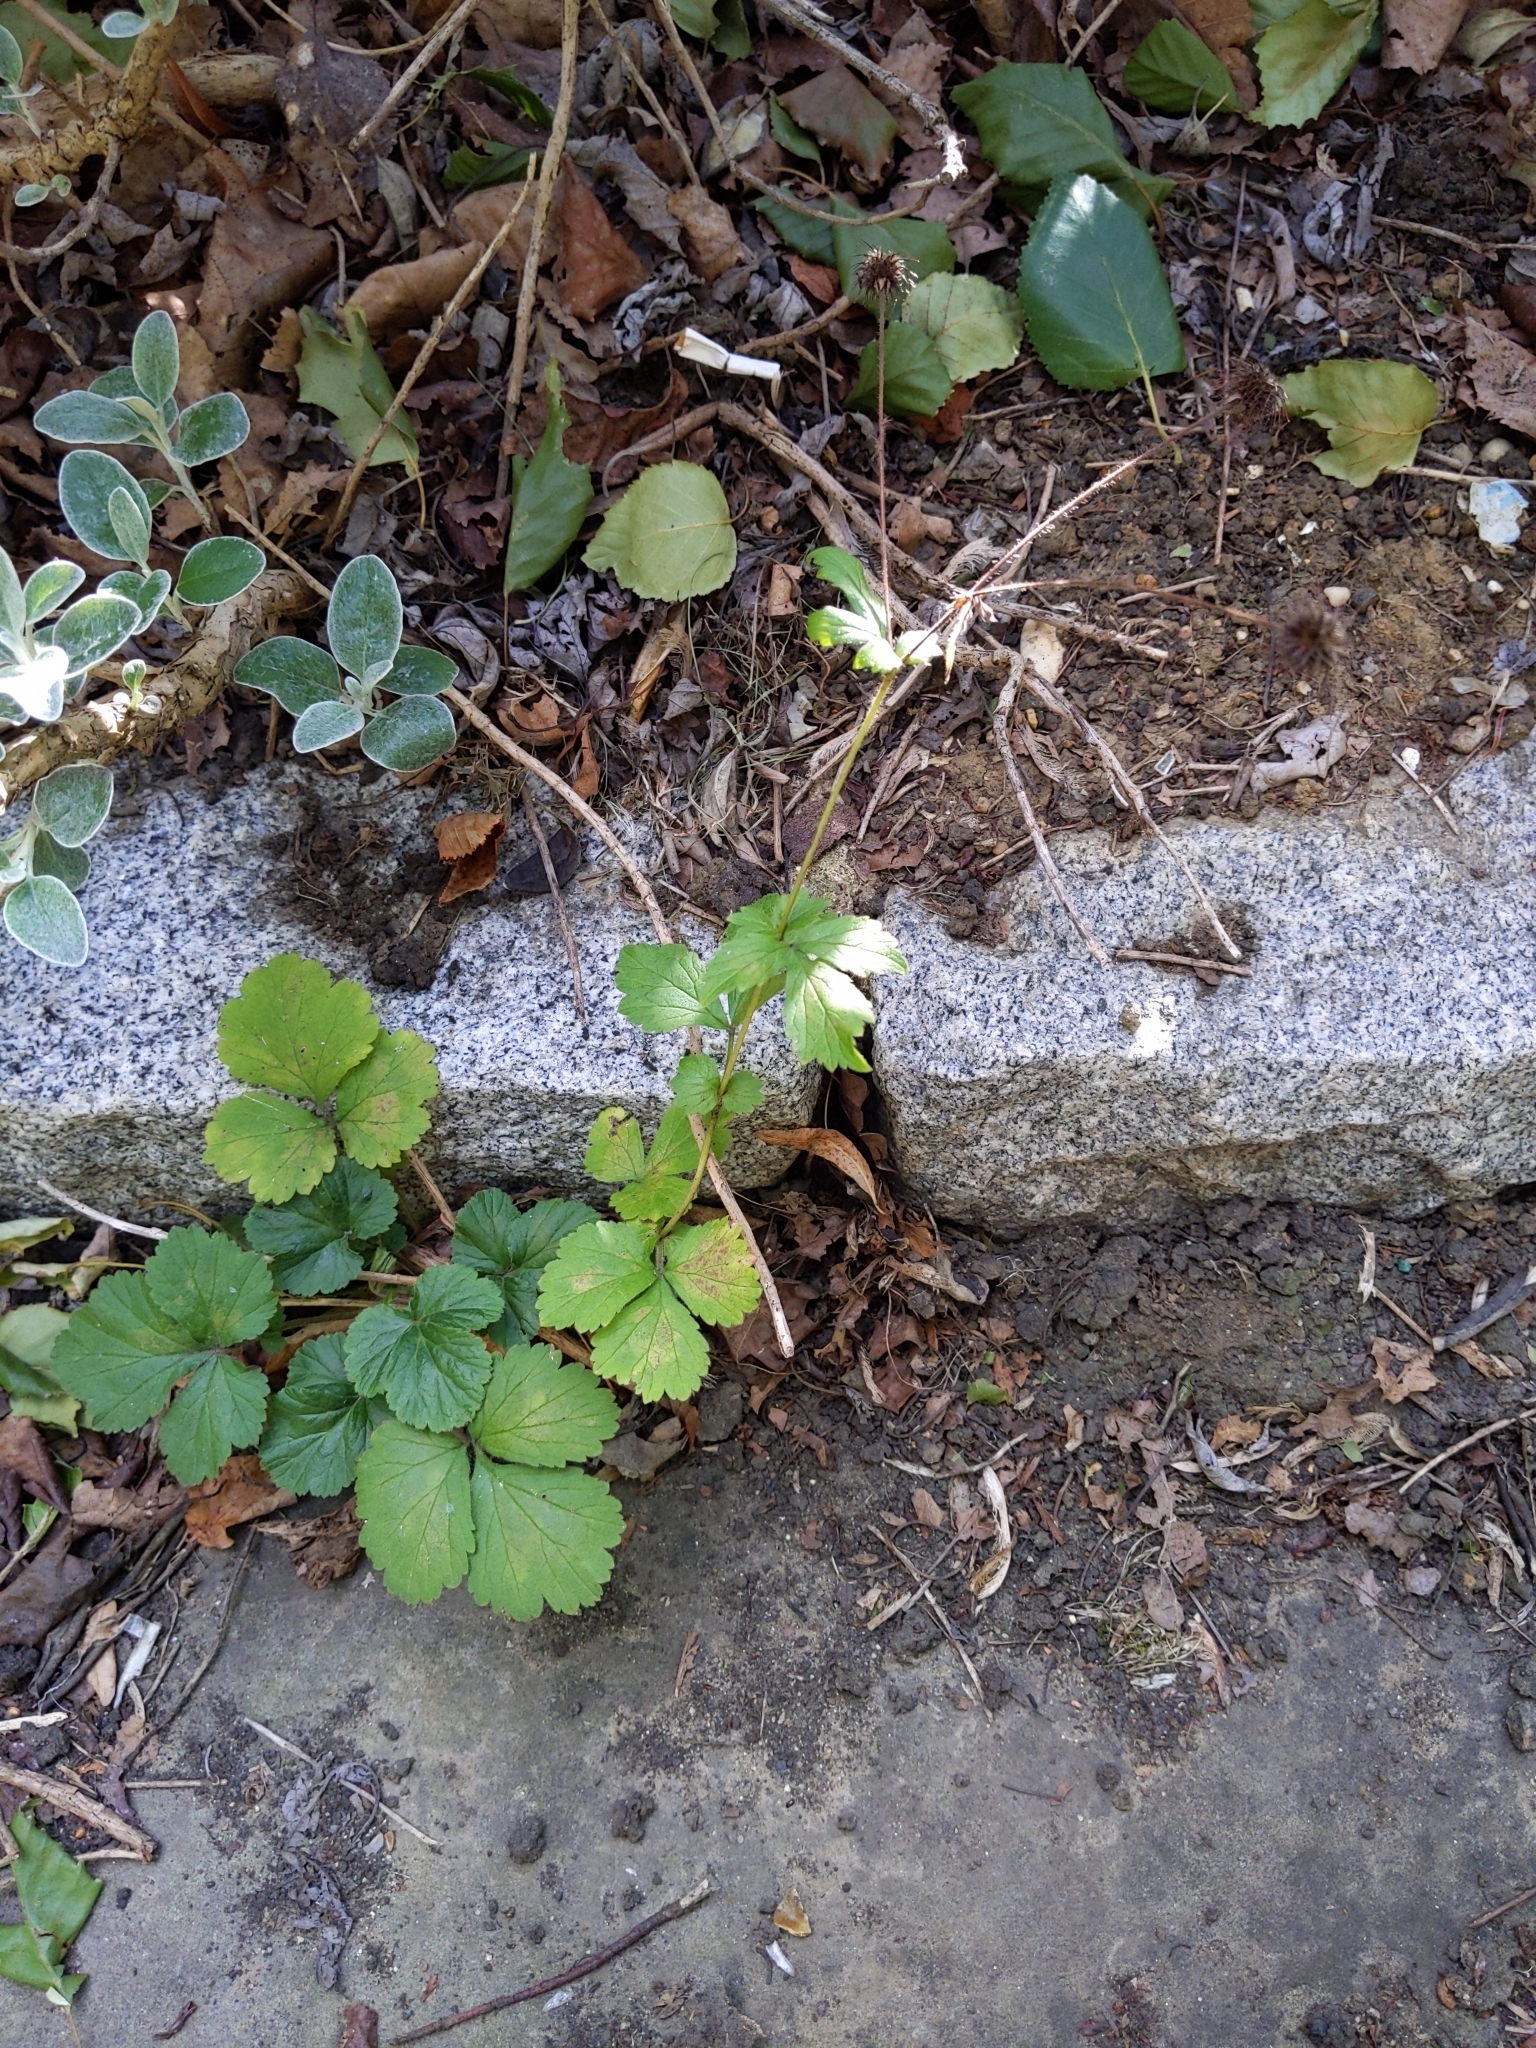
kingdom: Plantae
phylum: Tracheophyta
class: Magnoliopsida
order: Rosales
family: Rosaceae
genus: Geum
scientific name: Geum urbanum
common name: Wood avens
